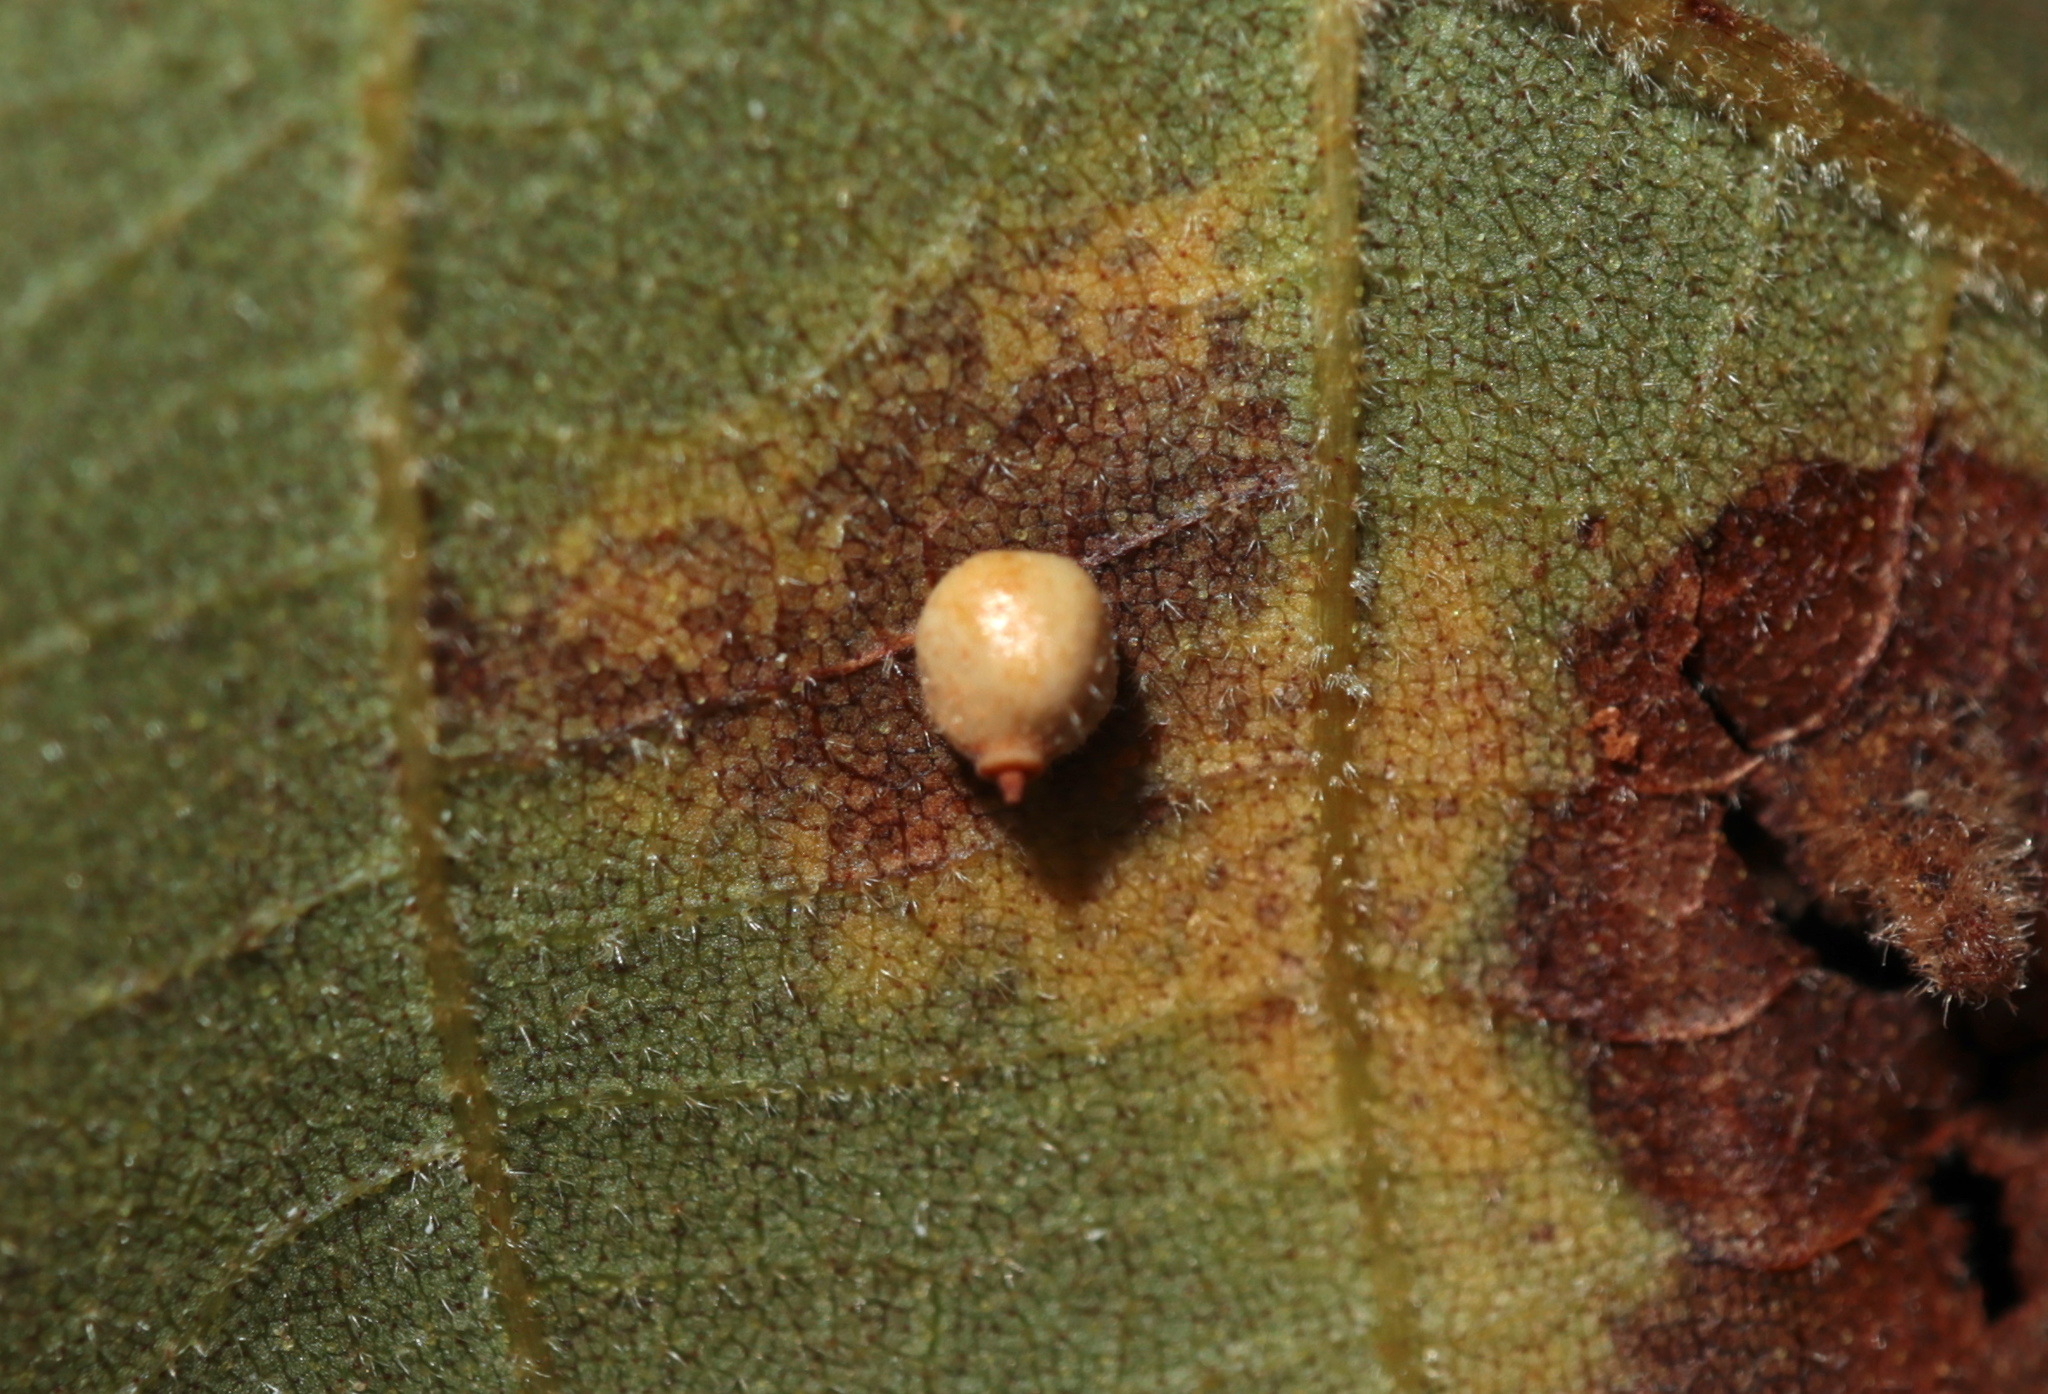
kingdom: Animalia
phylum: Arthropoda
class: Insecta
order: Diptera
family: Cecidomyiidae
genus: Caryomyia
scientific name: Caryomyia spiniglobus
